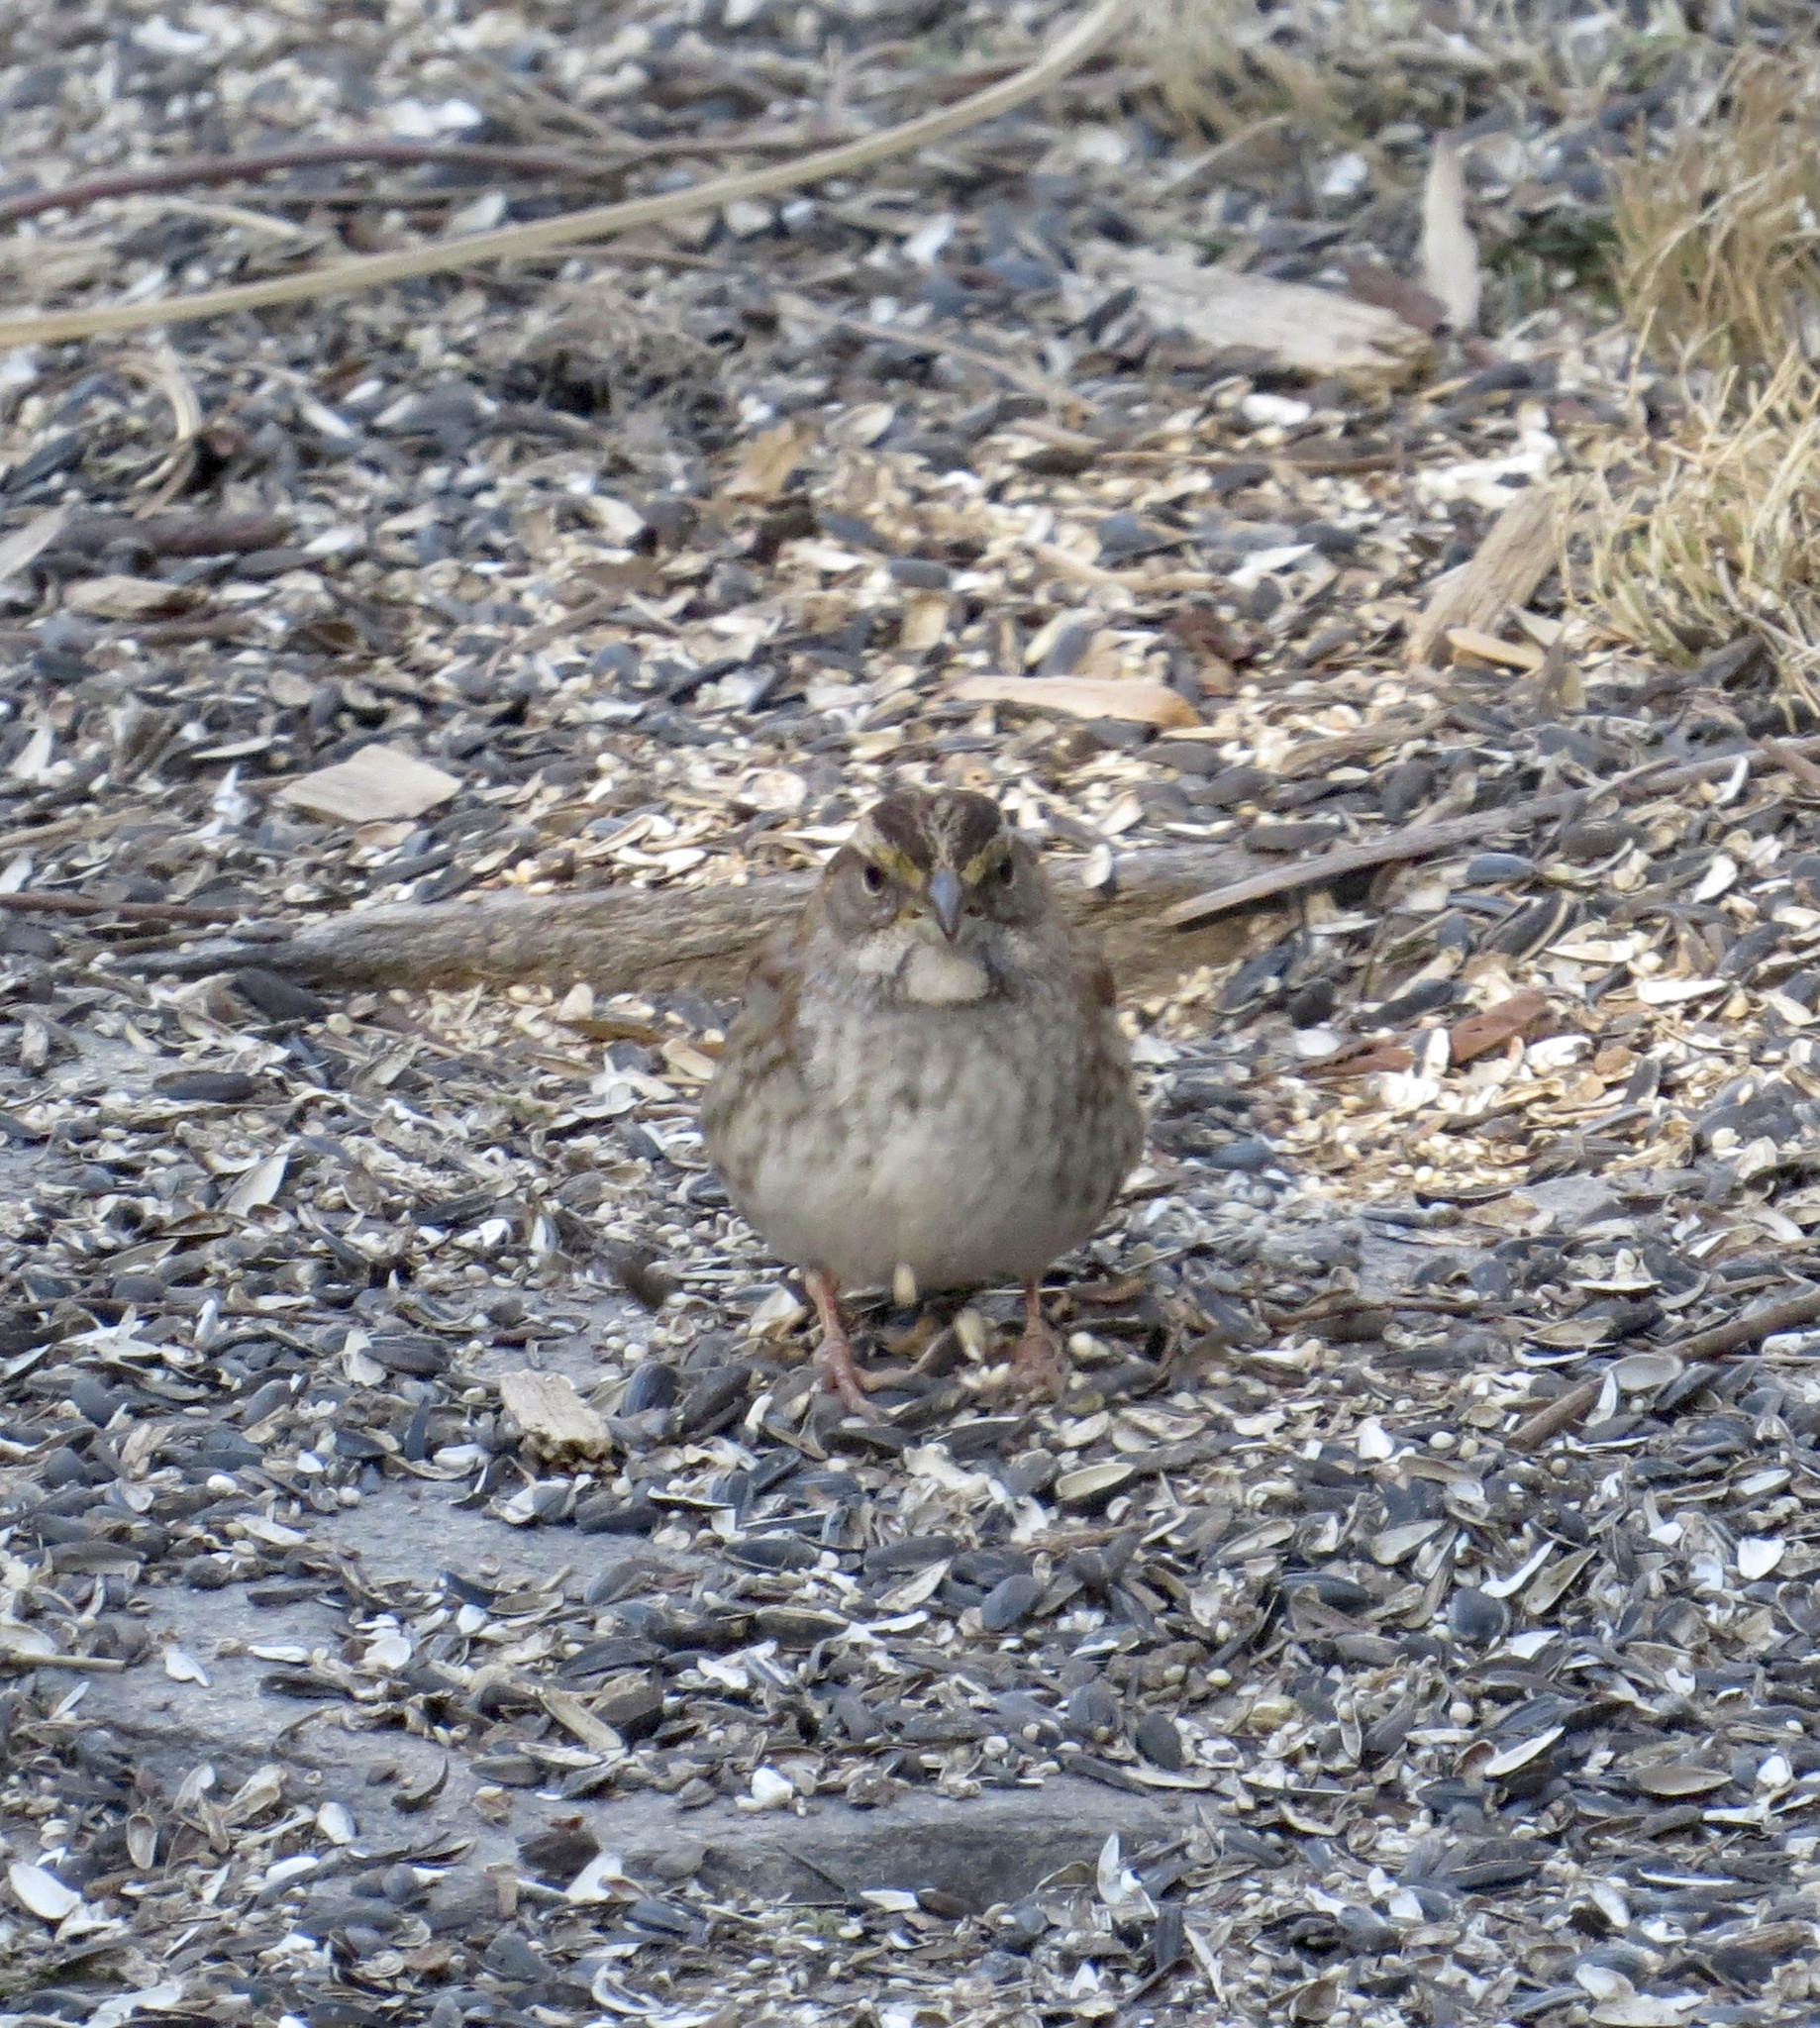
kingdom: Animalia
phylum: Chordata
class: Aves
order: Passeriformes
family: Passerellidae
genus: Zonotrichia
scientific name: Zonotrichia albicollis
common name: White-throated sparrow
